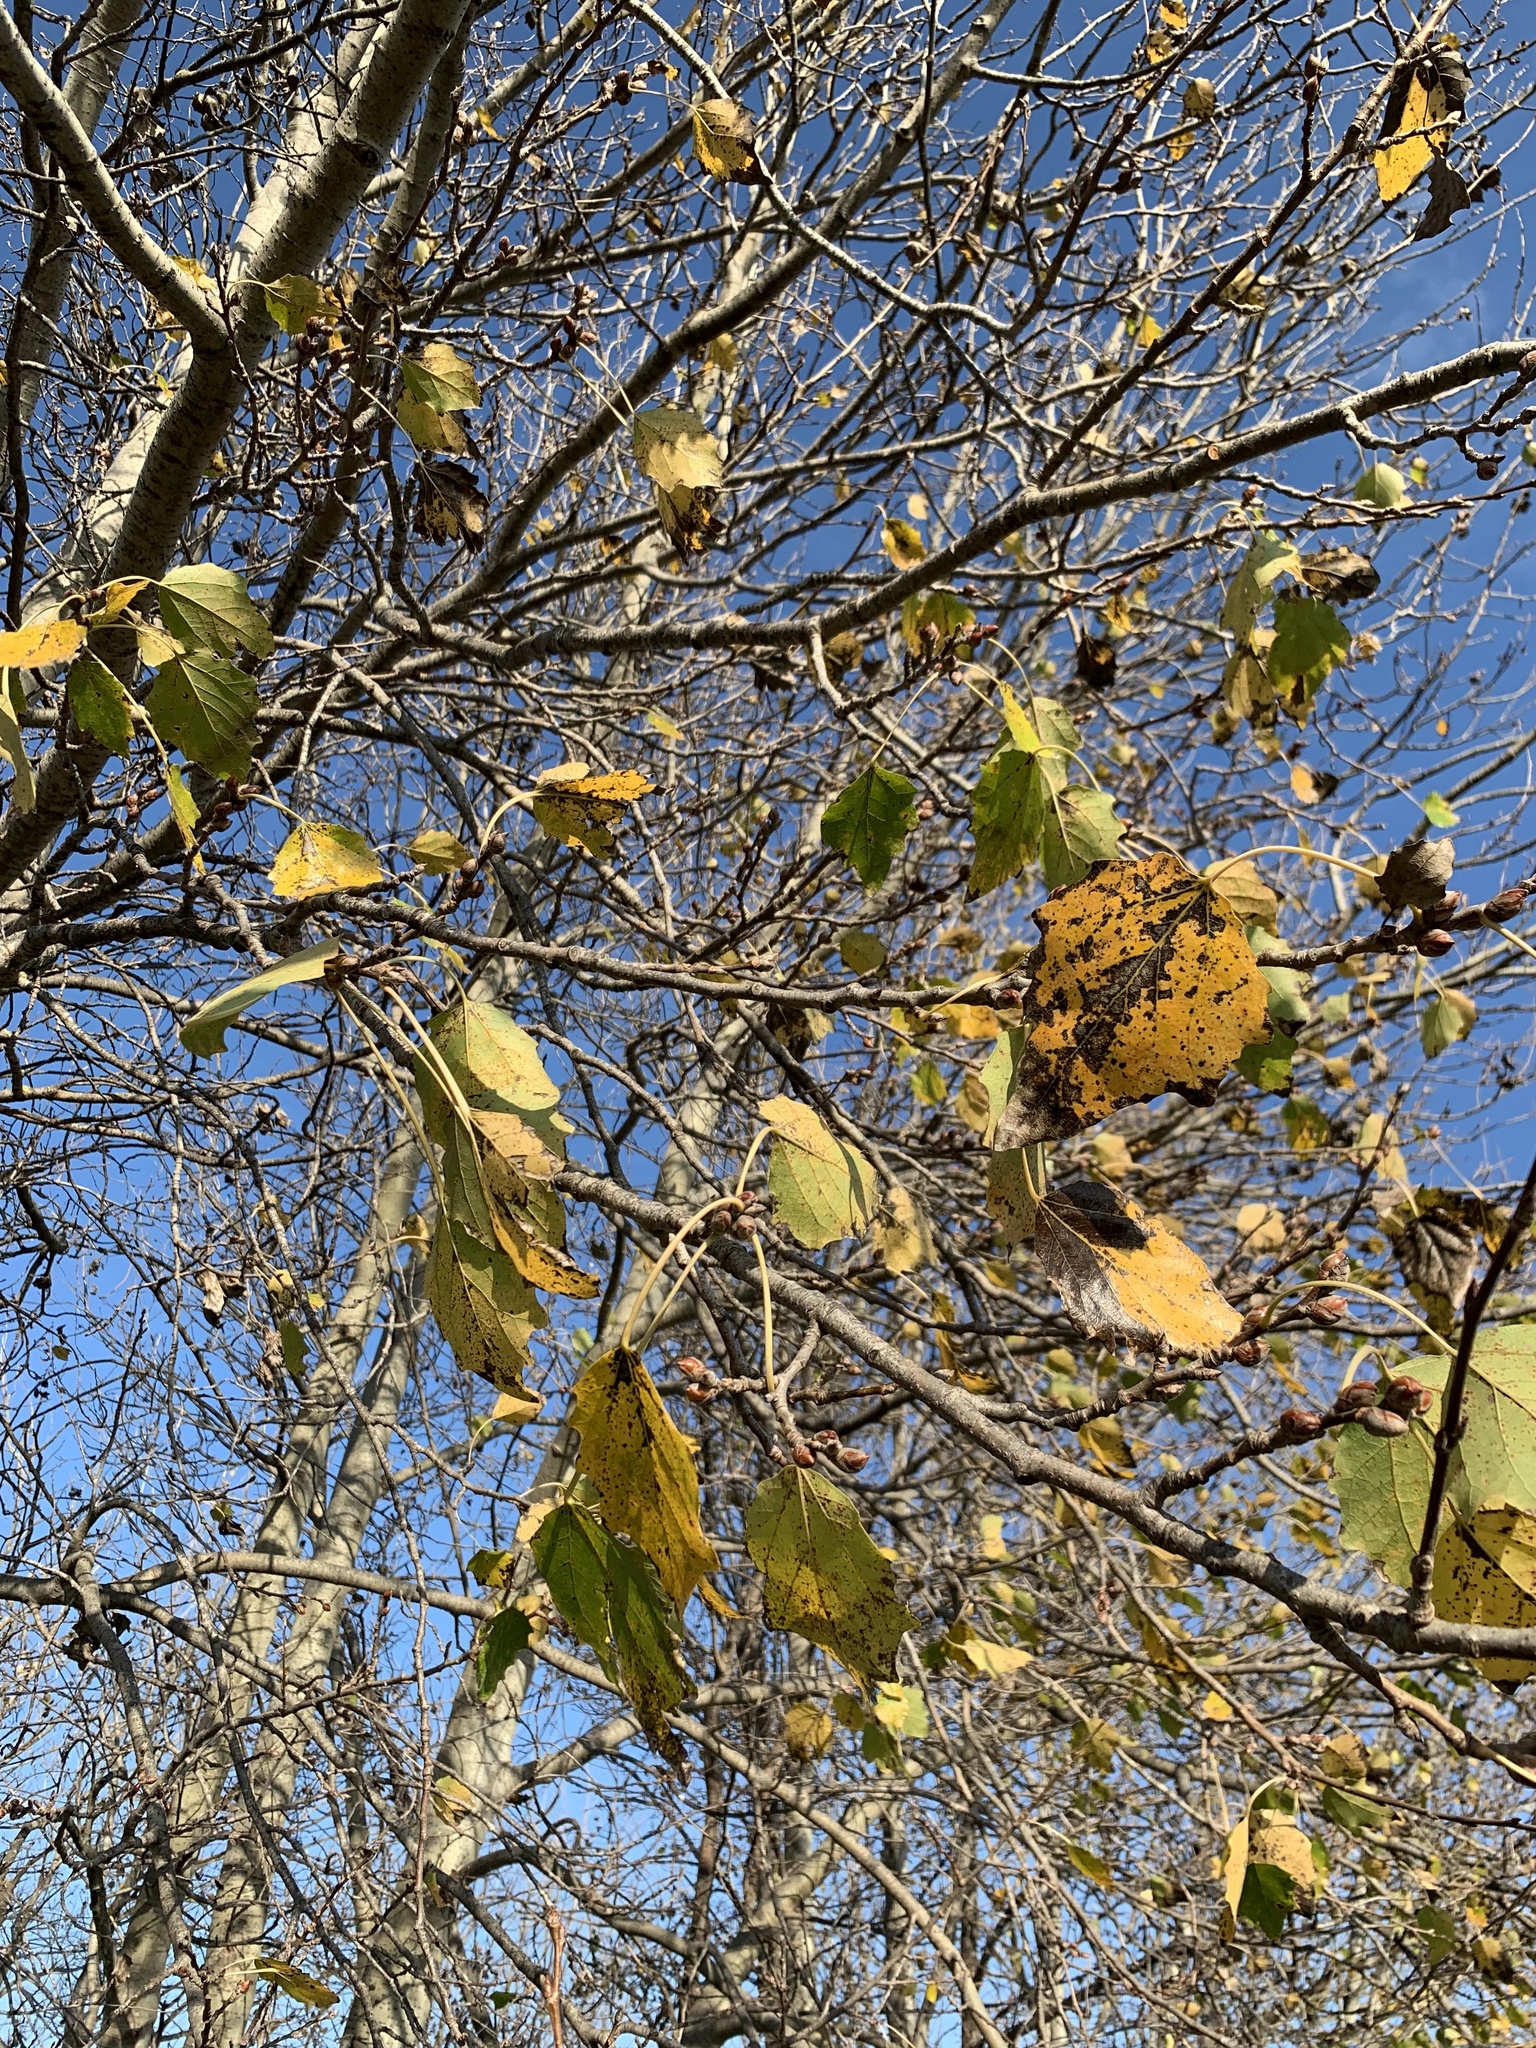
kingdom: Plantae
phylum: Tracheophyta
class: Magnoliopsida
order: Malpighiales
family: Salicaceae
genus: Populus
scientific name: Populus canescens
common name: Gray poplar
